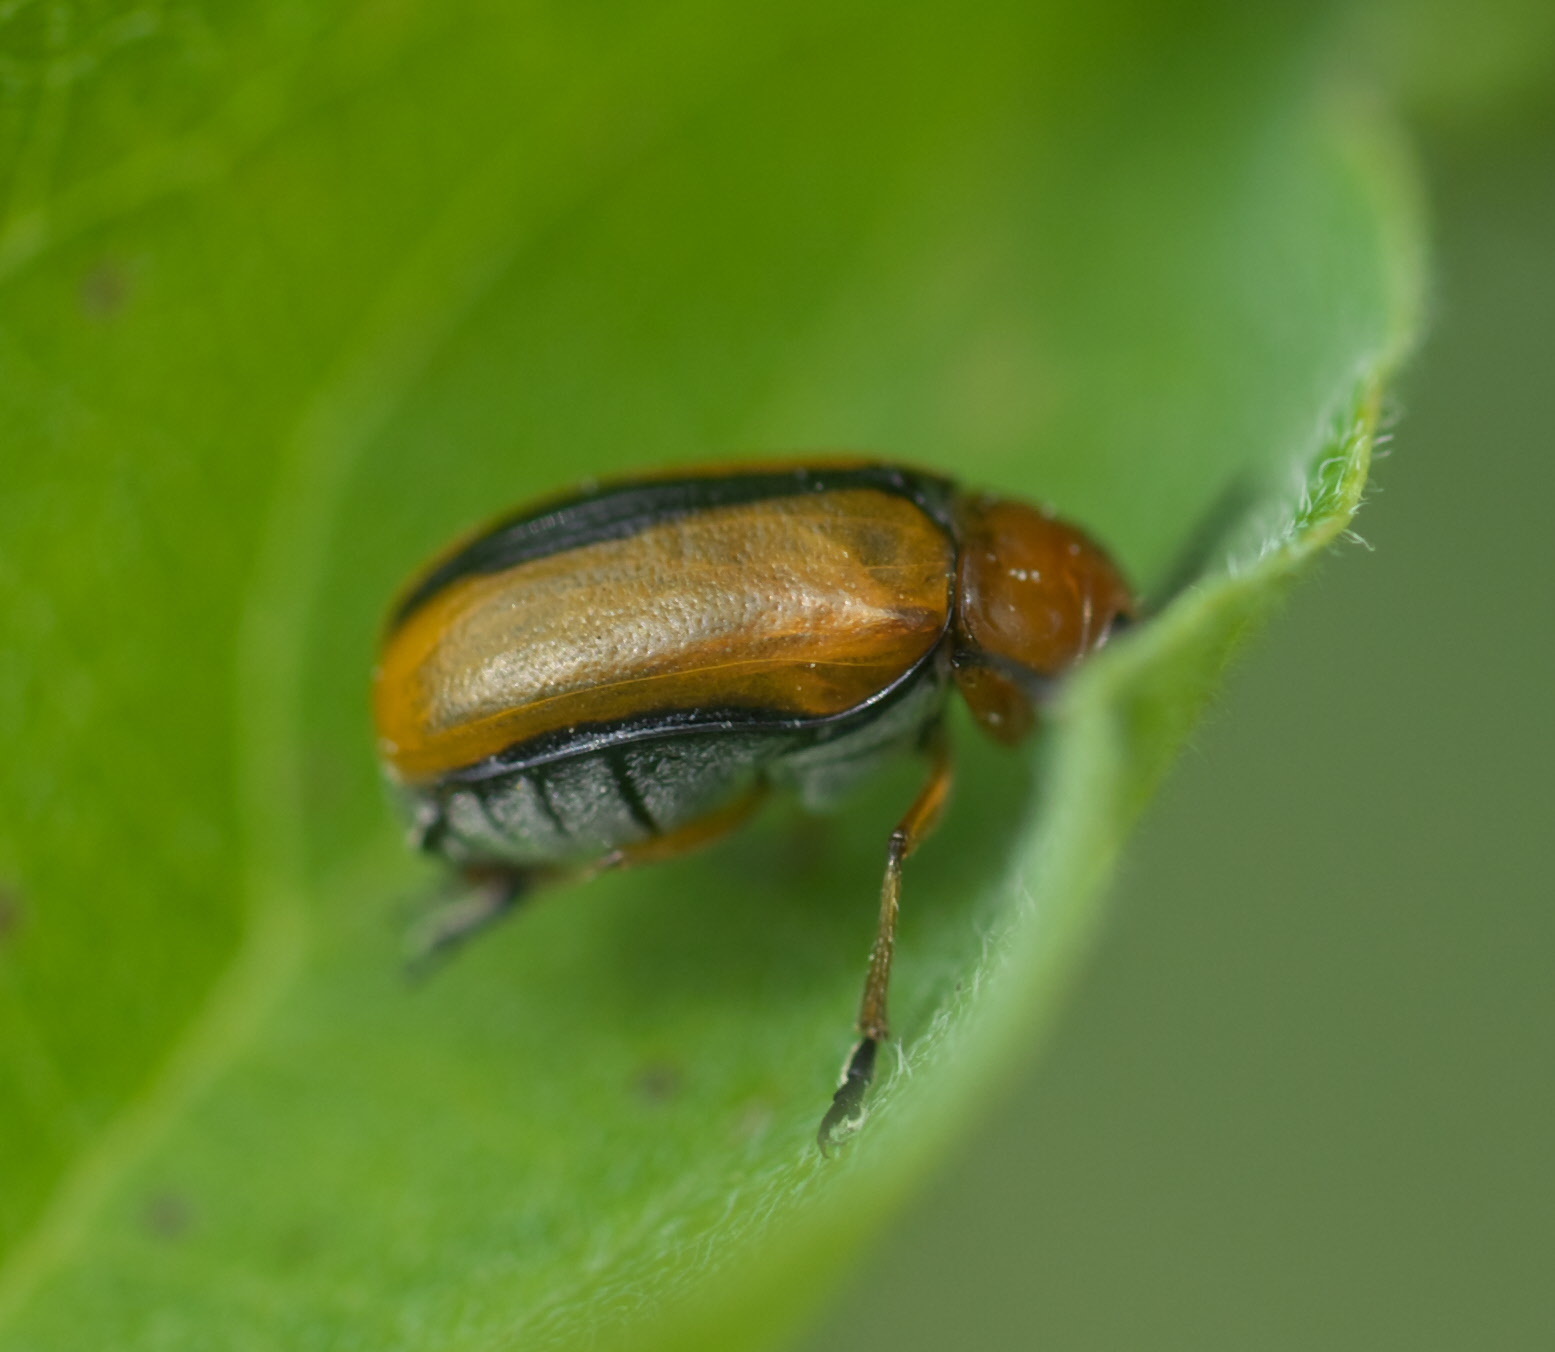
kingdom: Animalia
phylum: Arthropoda
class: Insecta
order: Coleoptera
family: Chrysomelidae
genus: Anomoea
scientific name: Anomoea laticlavia
